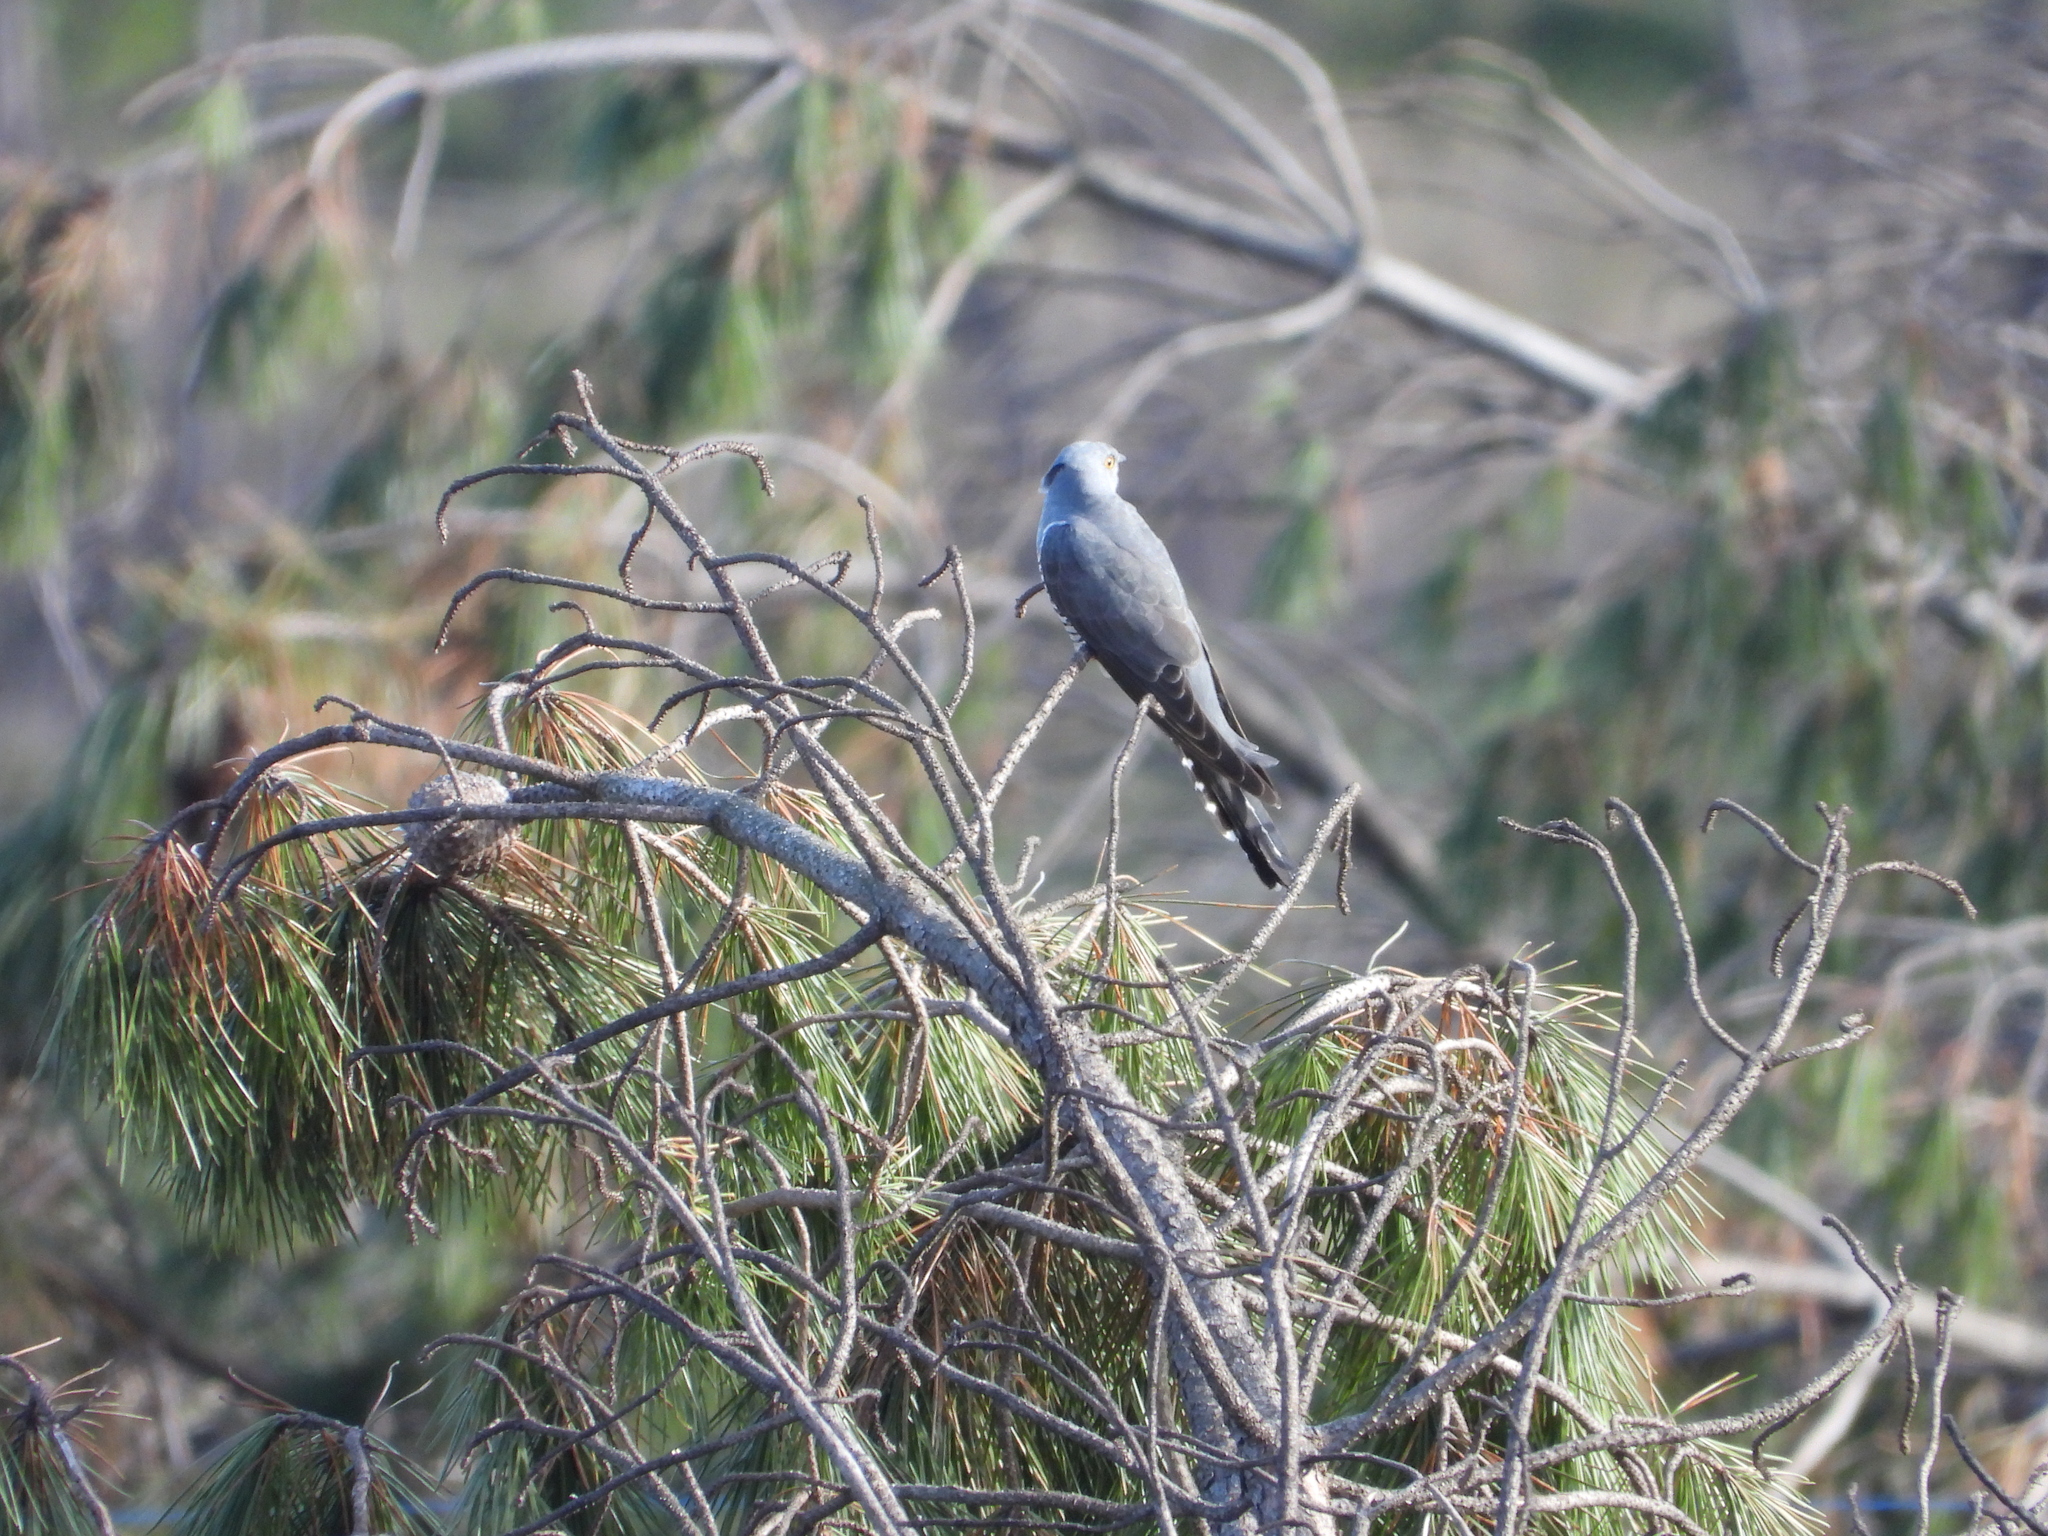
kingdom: Animalia
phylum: Chordata
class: Aves
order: Cuculiformes
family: Cuculidae
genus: Cuculus
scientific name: Cuculus canorus
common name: Common cuckoo
